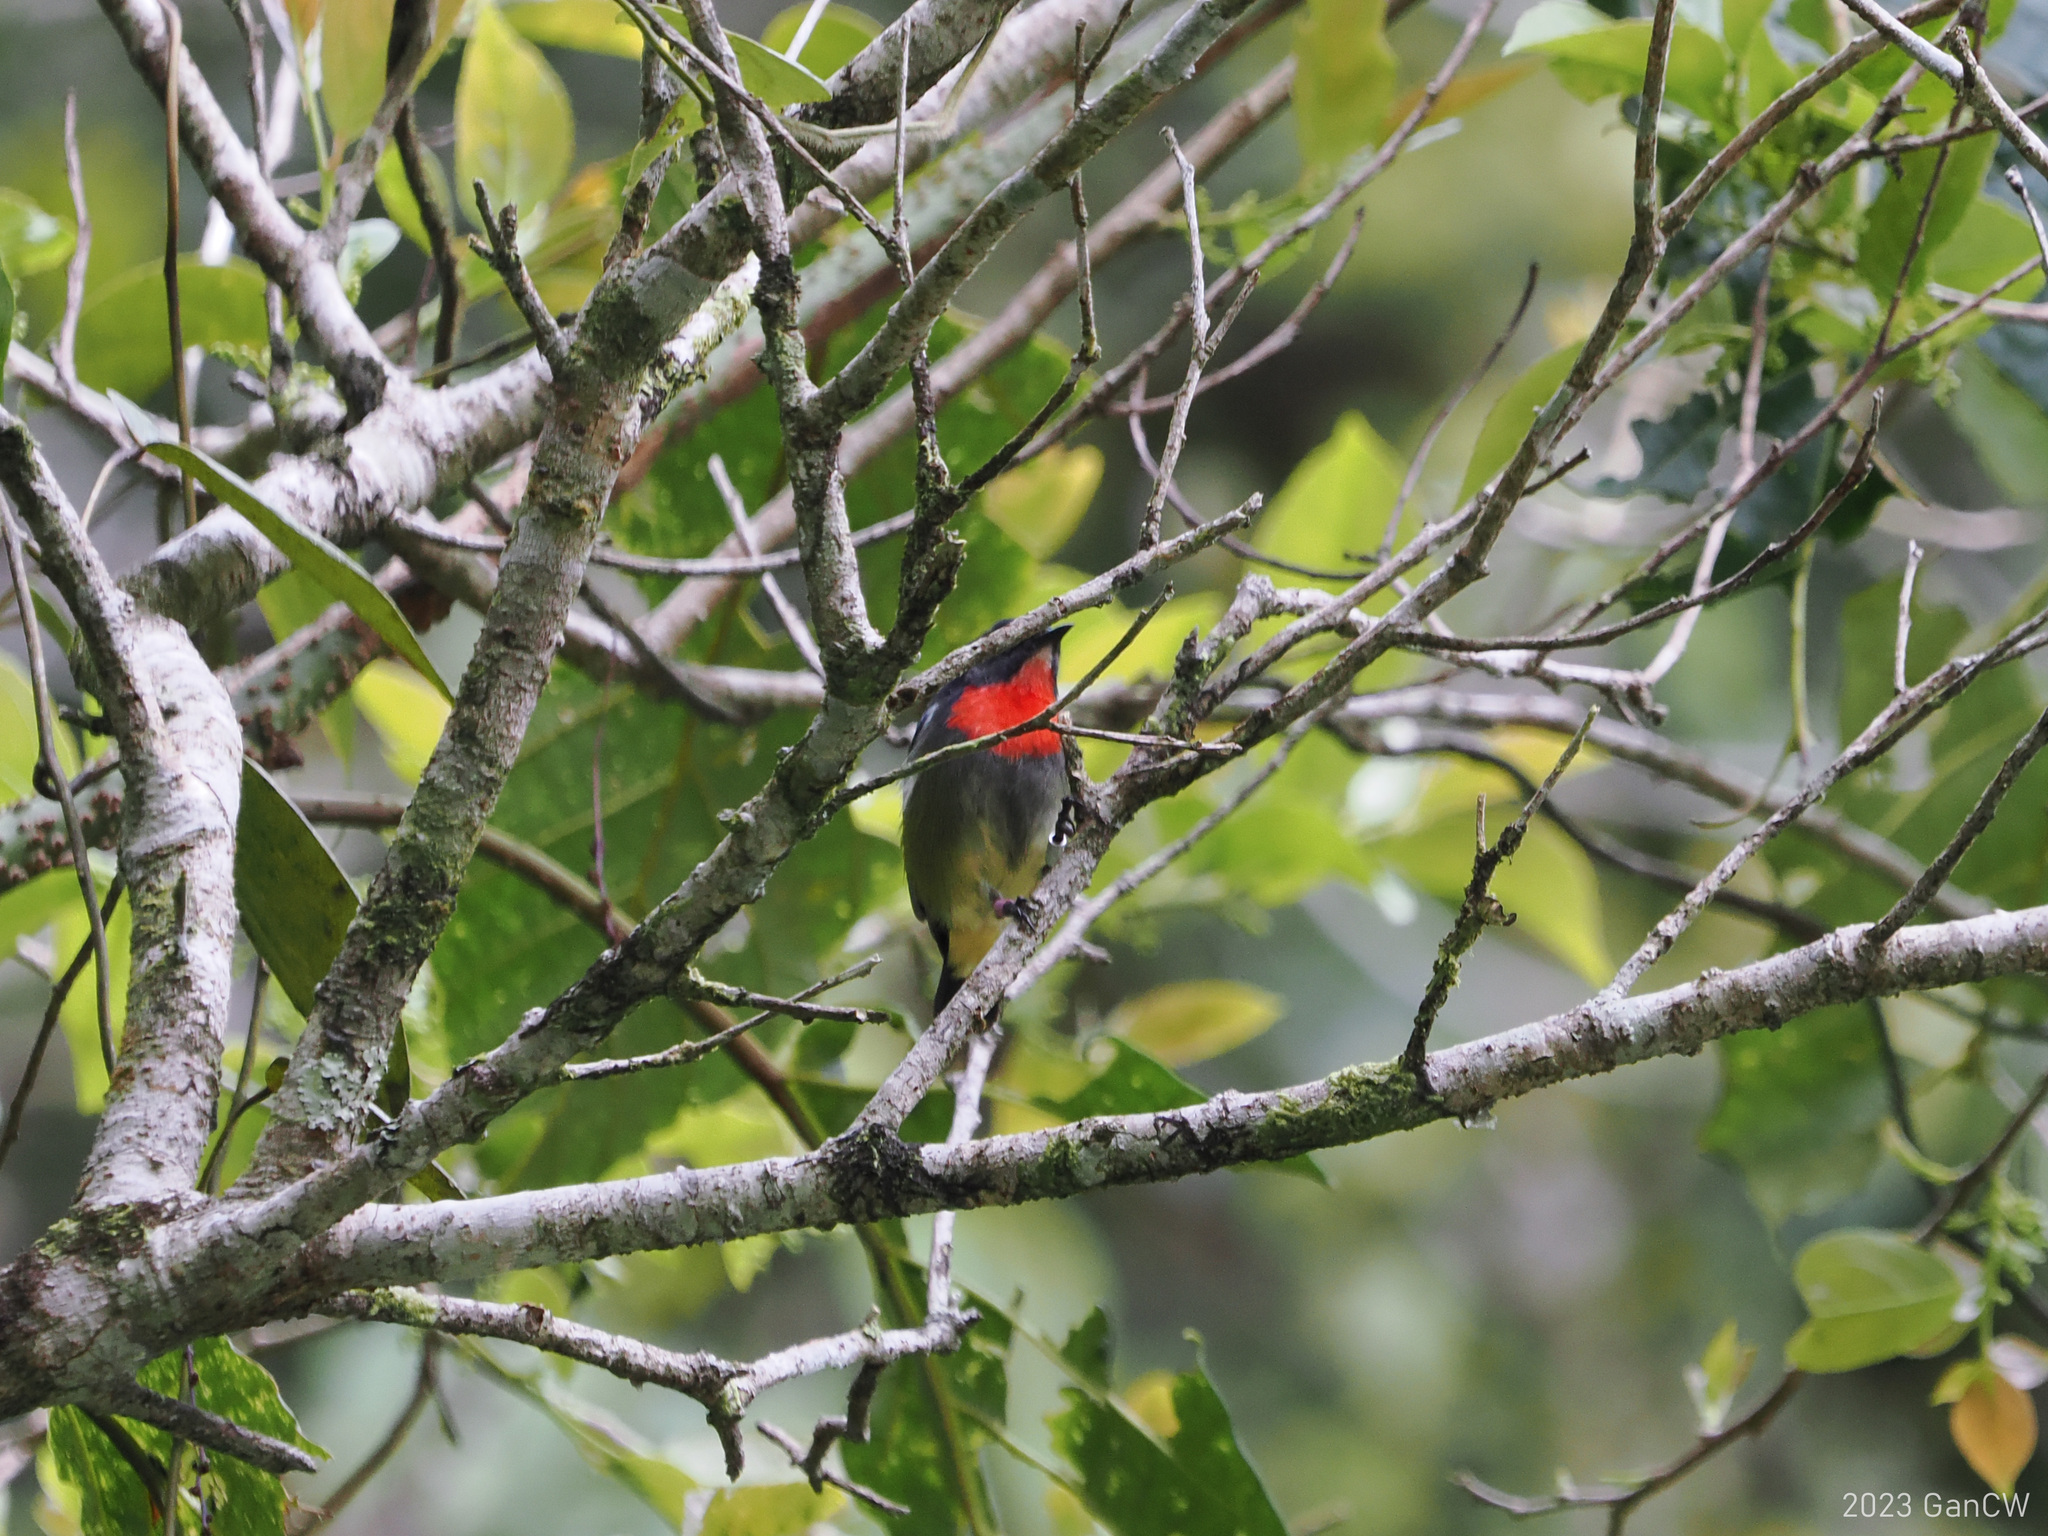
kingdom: Animalia
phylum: Chordata
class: Aves
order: Passeriformes
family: Dicaeidae
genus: Dicaeum
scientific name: Dicaeum monticolum
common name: Black-sided flowerpecker
